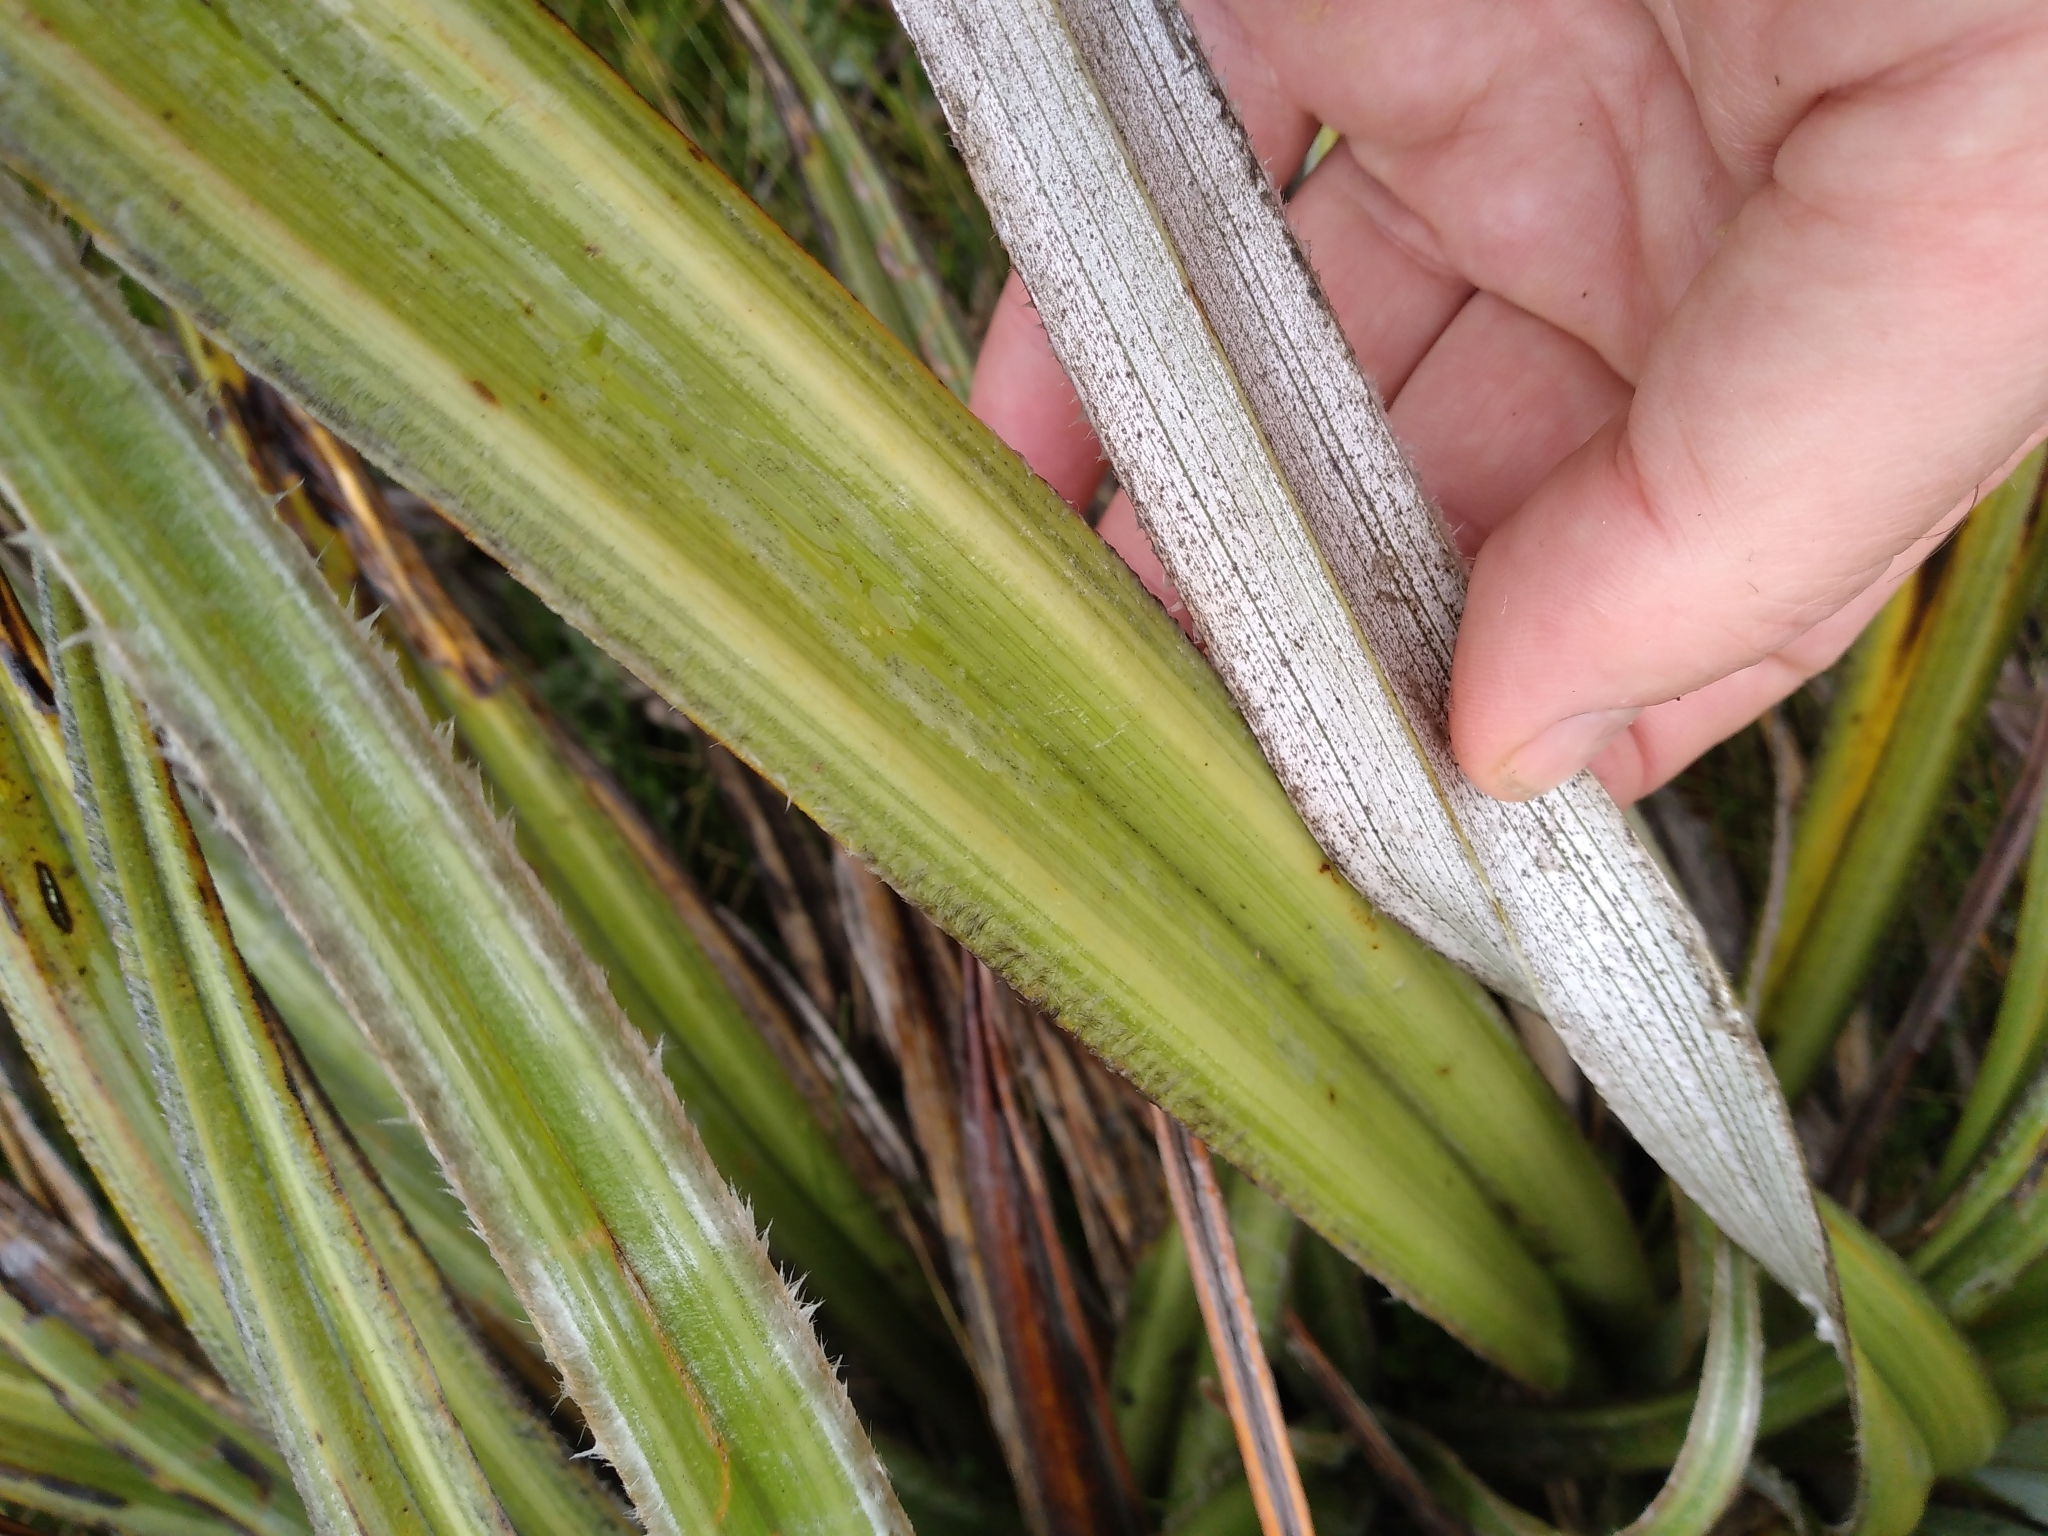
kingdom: Plantae
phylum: Tracheophyta
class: Liliopsida
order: Asparagales
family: Asteliaceae
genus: Astelia
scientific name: Astelia nervosa
